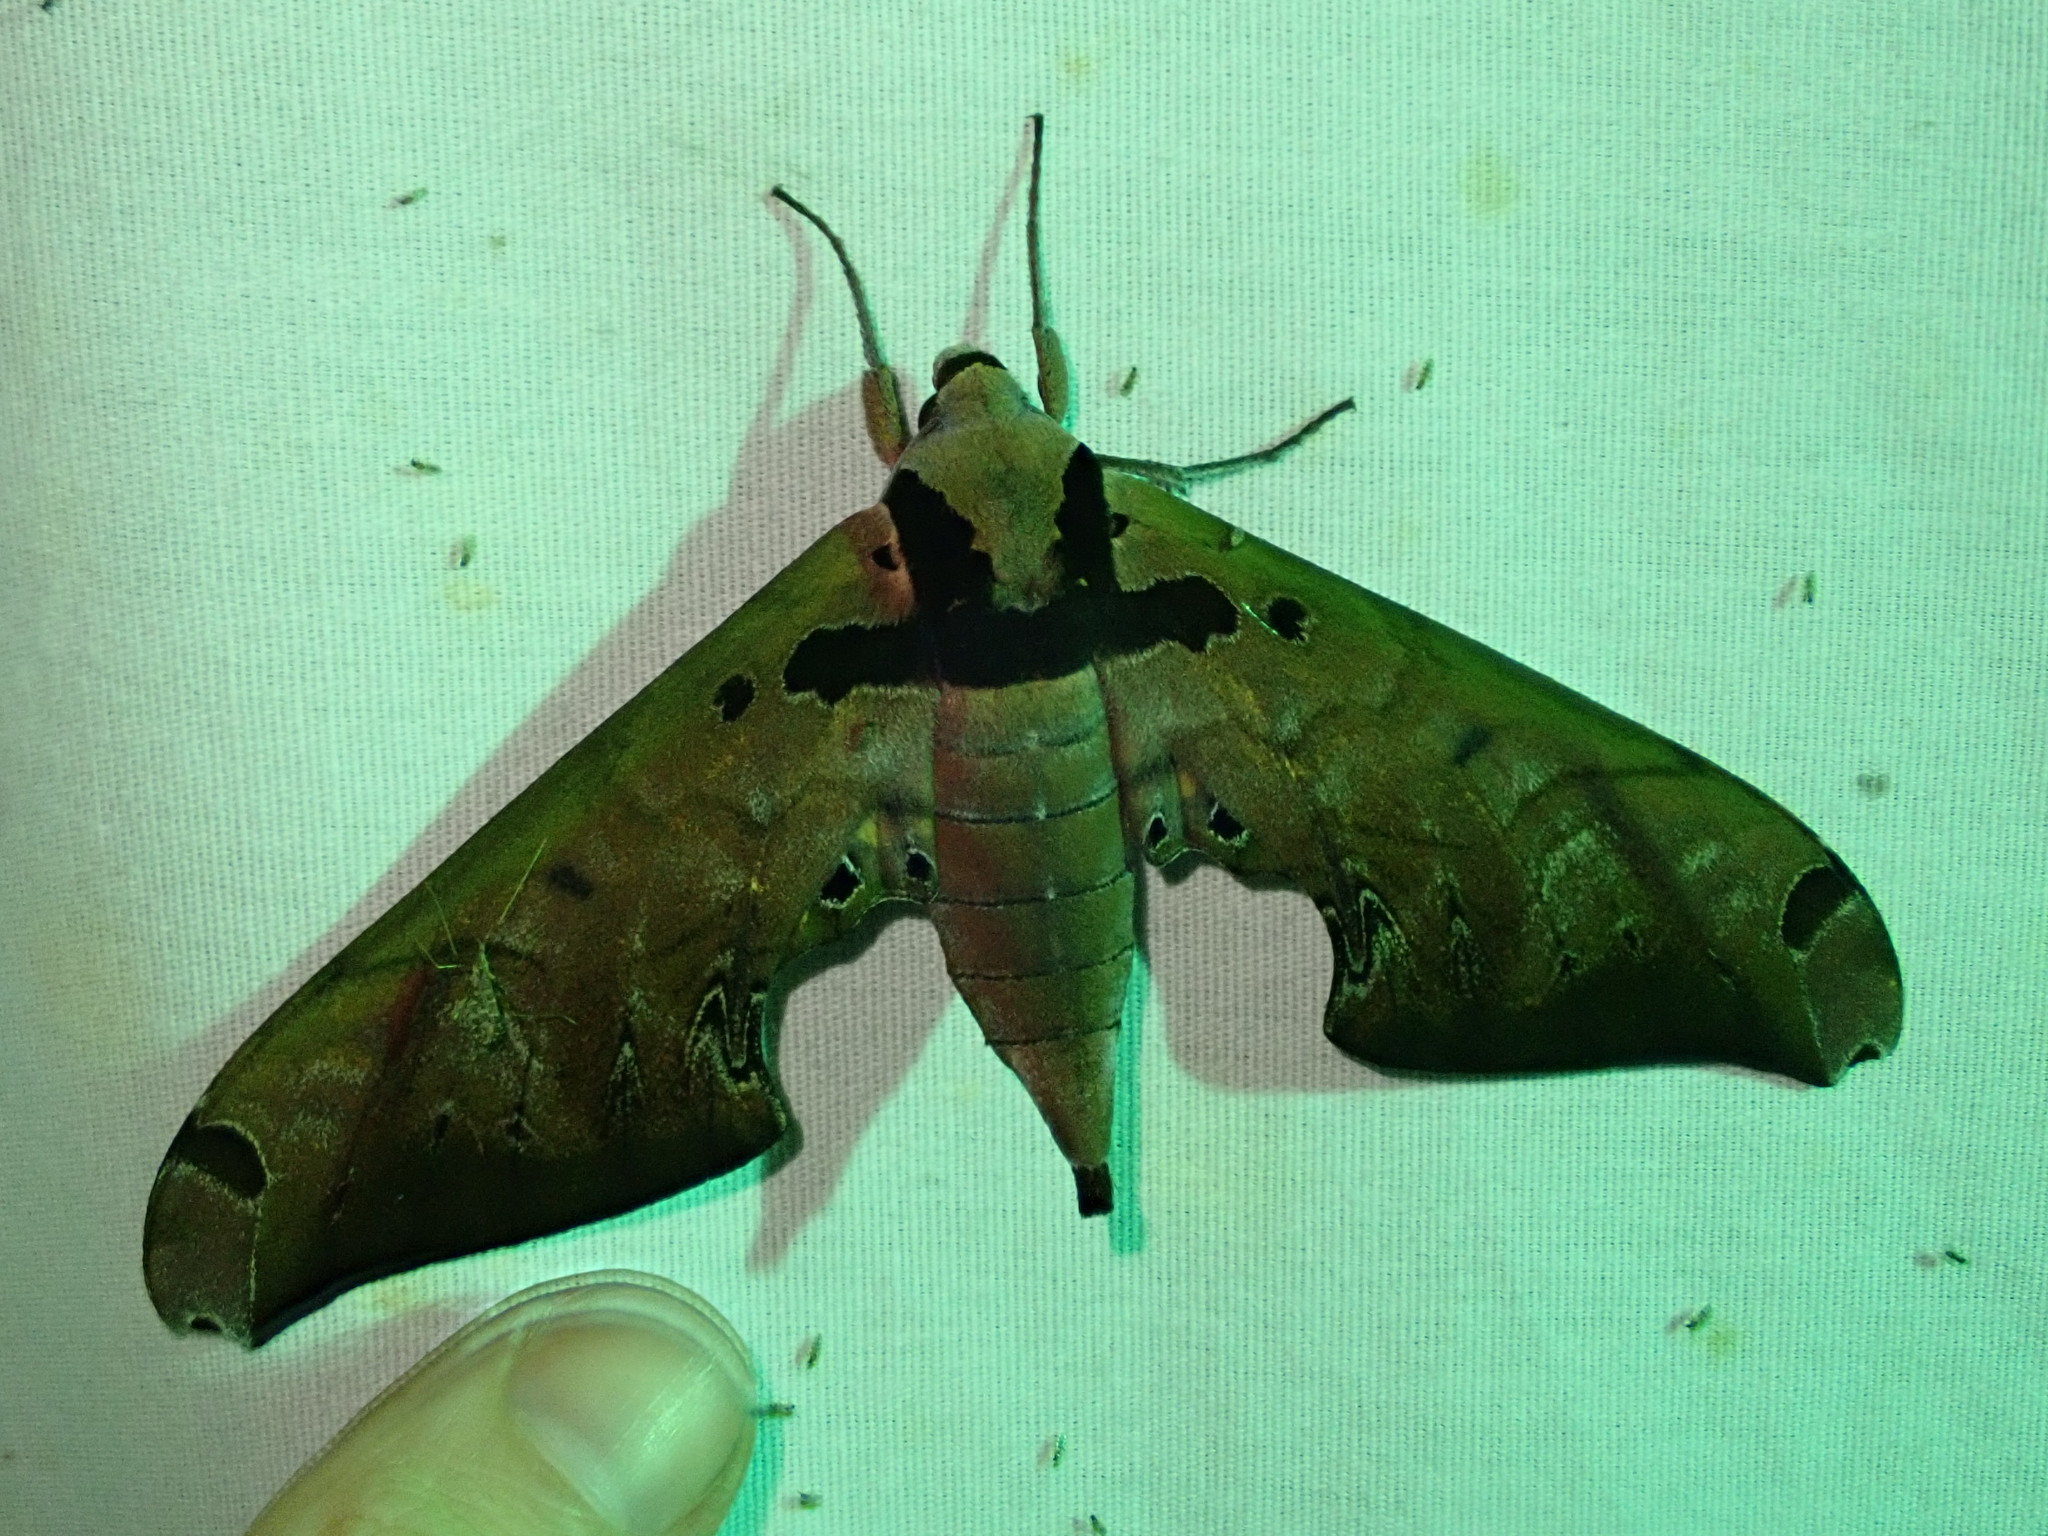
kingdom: Animalia
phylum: Arthropoda
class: Insecta
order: Lepidoptera
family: Sphingidae
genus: Adhemarius
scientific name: Adhemarius sexoculata
